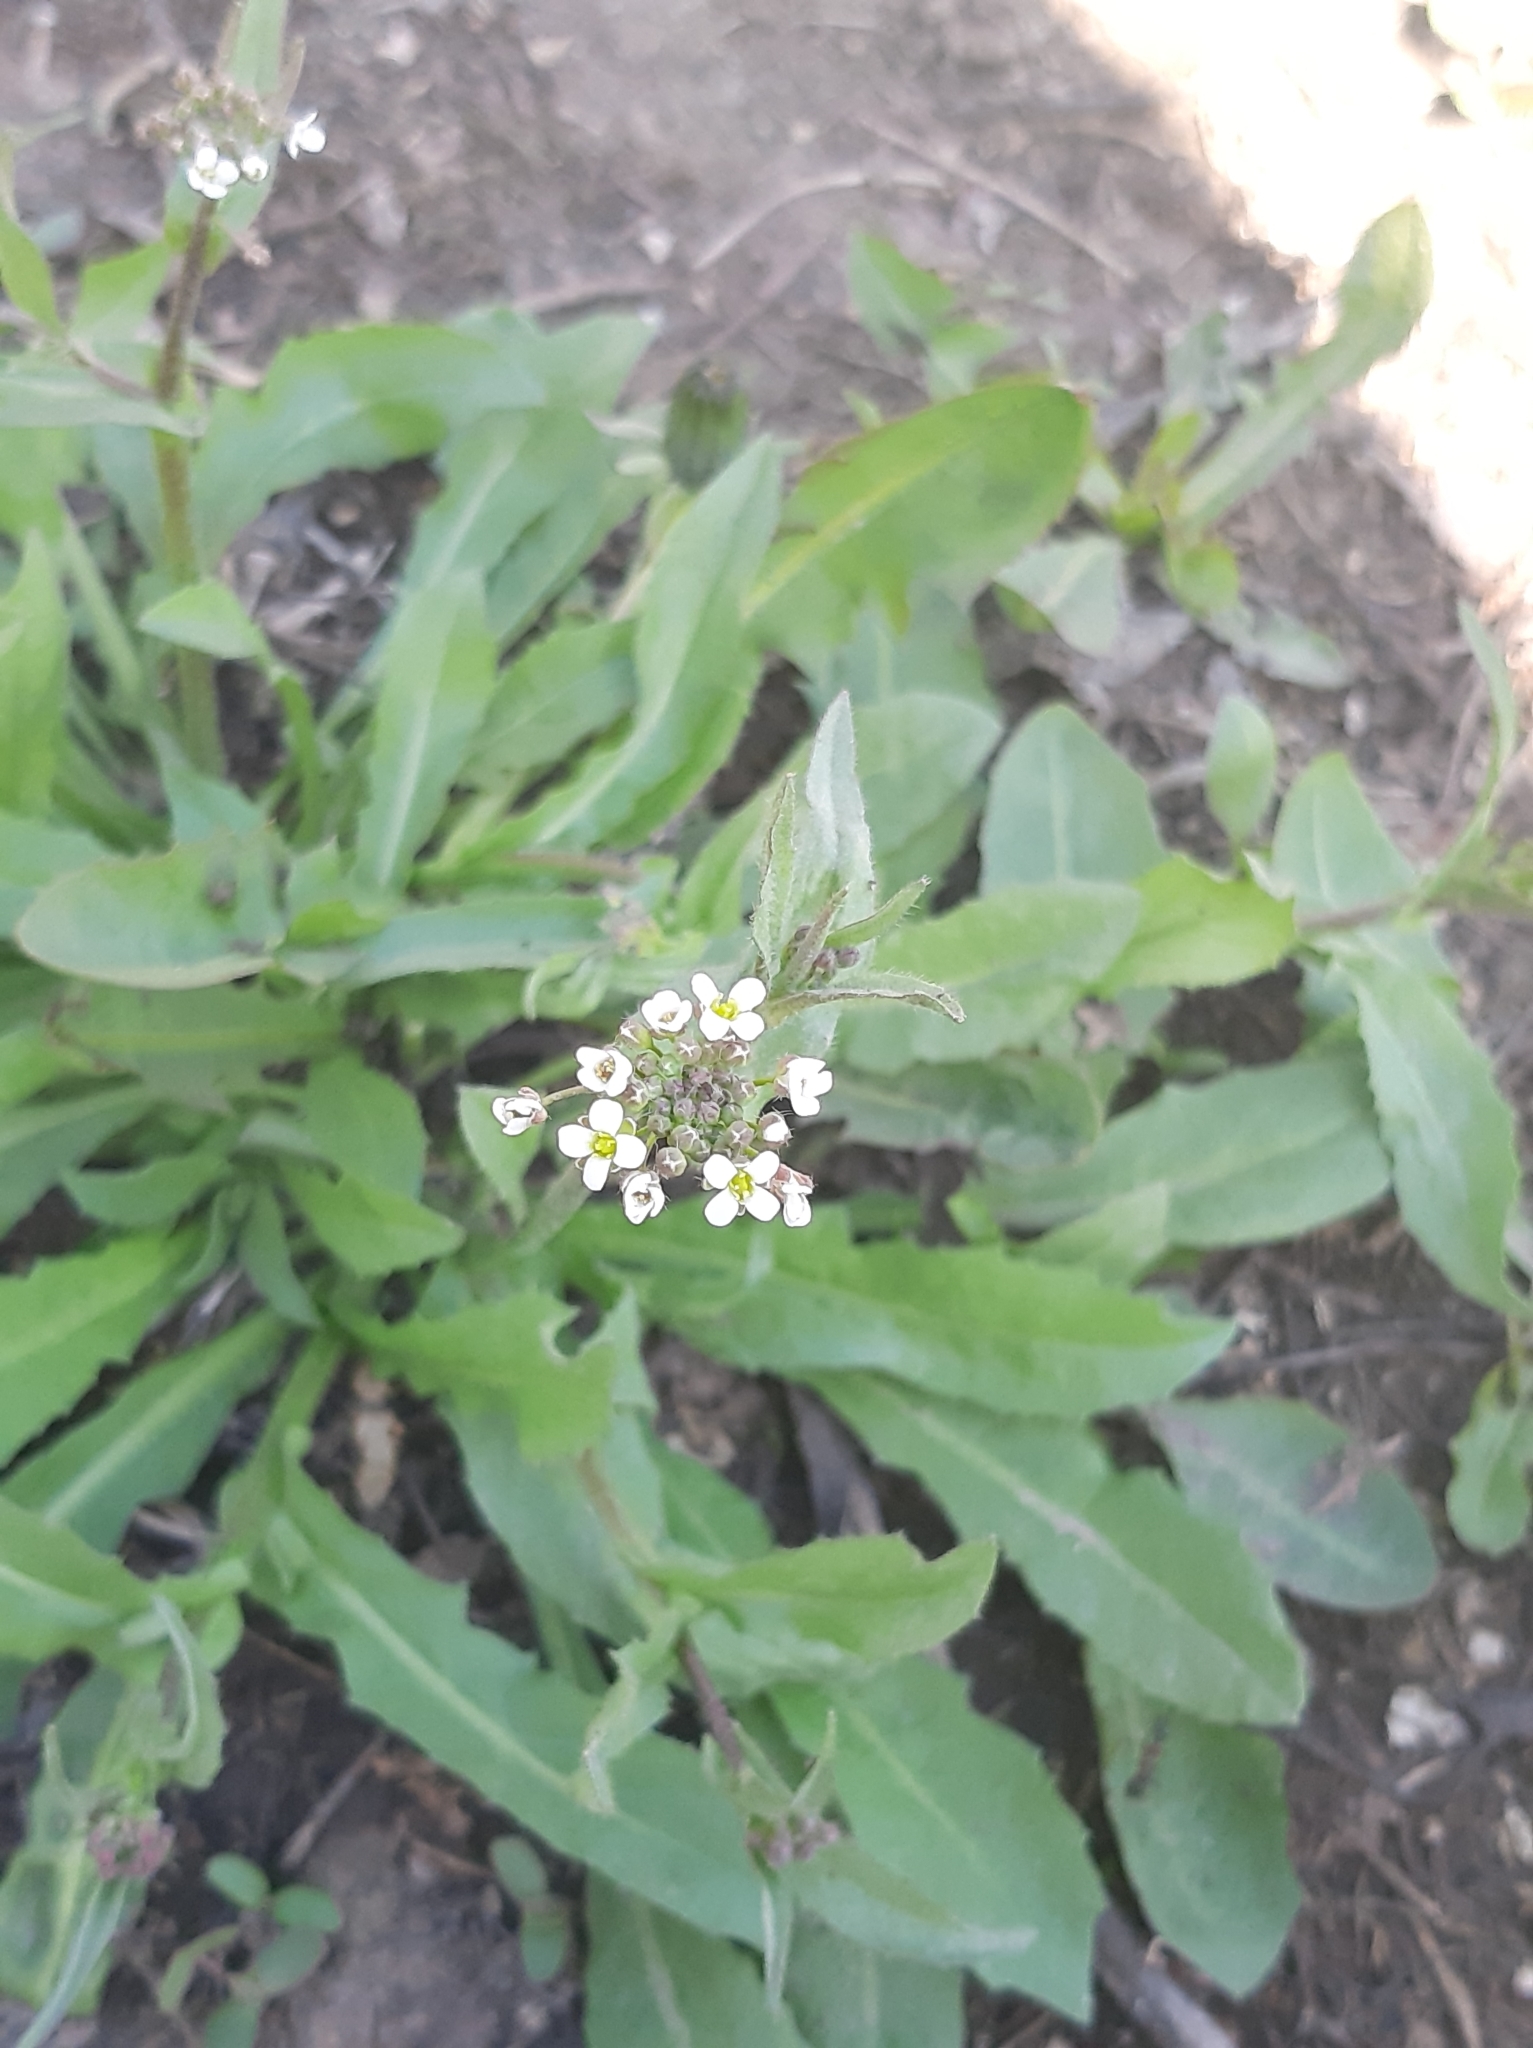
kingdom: Plantae
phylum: Tracheophyta
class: Magnoliopsida
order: Brassicales
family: Brassicaceae
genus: Capsella
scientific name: Capsella bursa-pastoris
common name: Shepherd's purse
